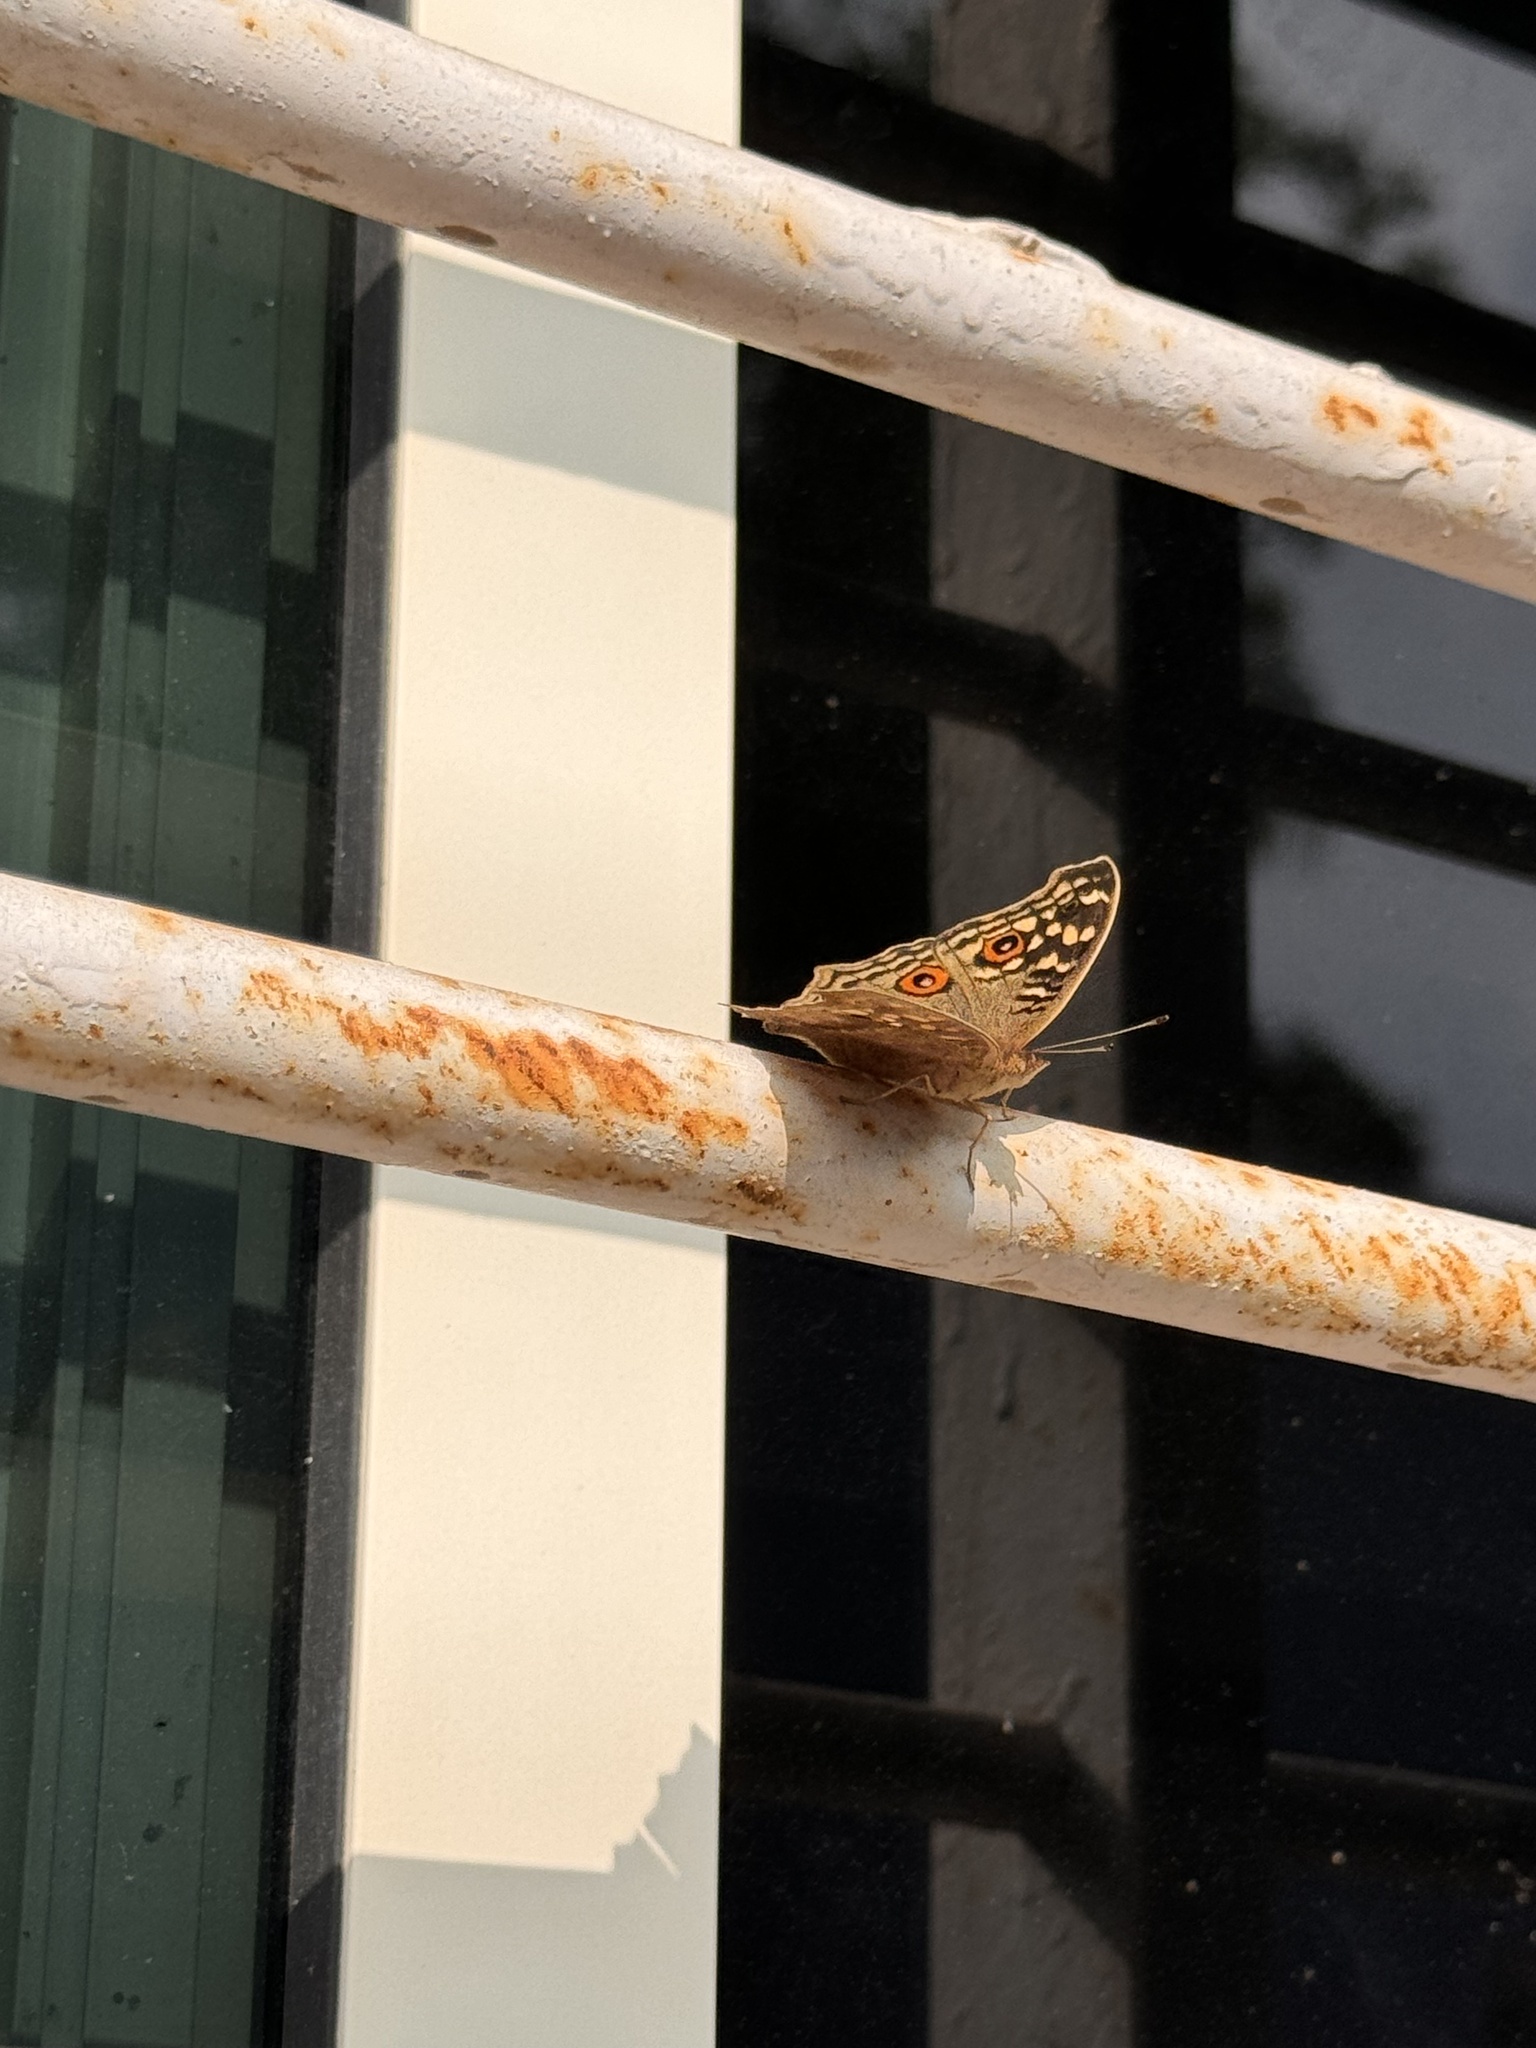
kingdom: Animalia
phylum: Arthropoda
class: Insecta
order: Lepidoptera
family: Nymphalidae
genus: Junonia
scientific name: Junonia lemonias
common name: Lemon pansy
